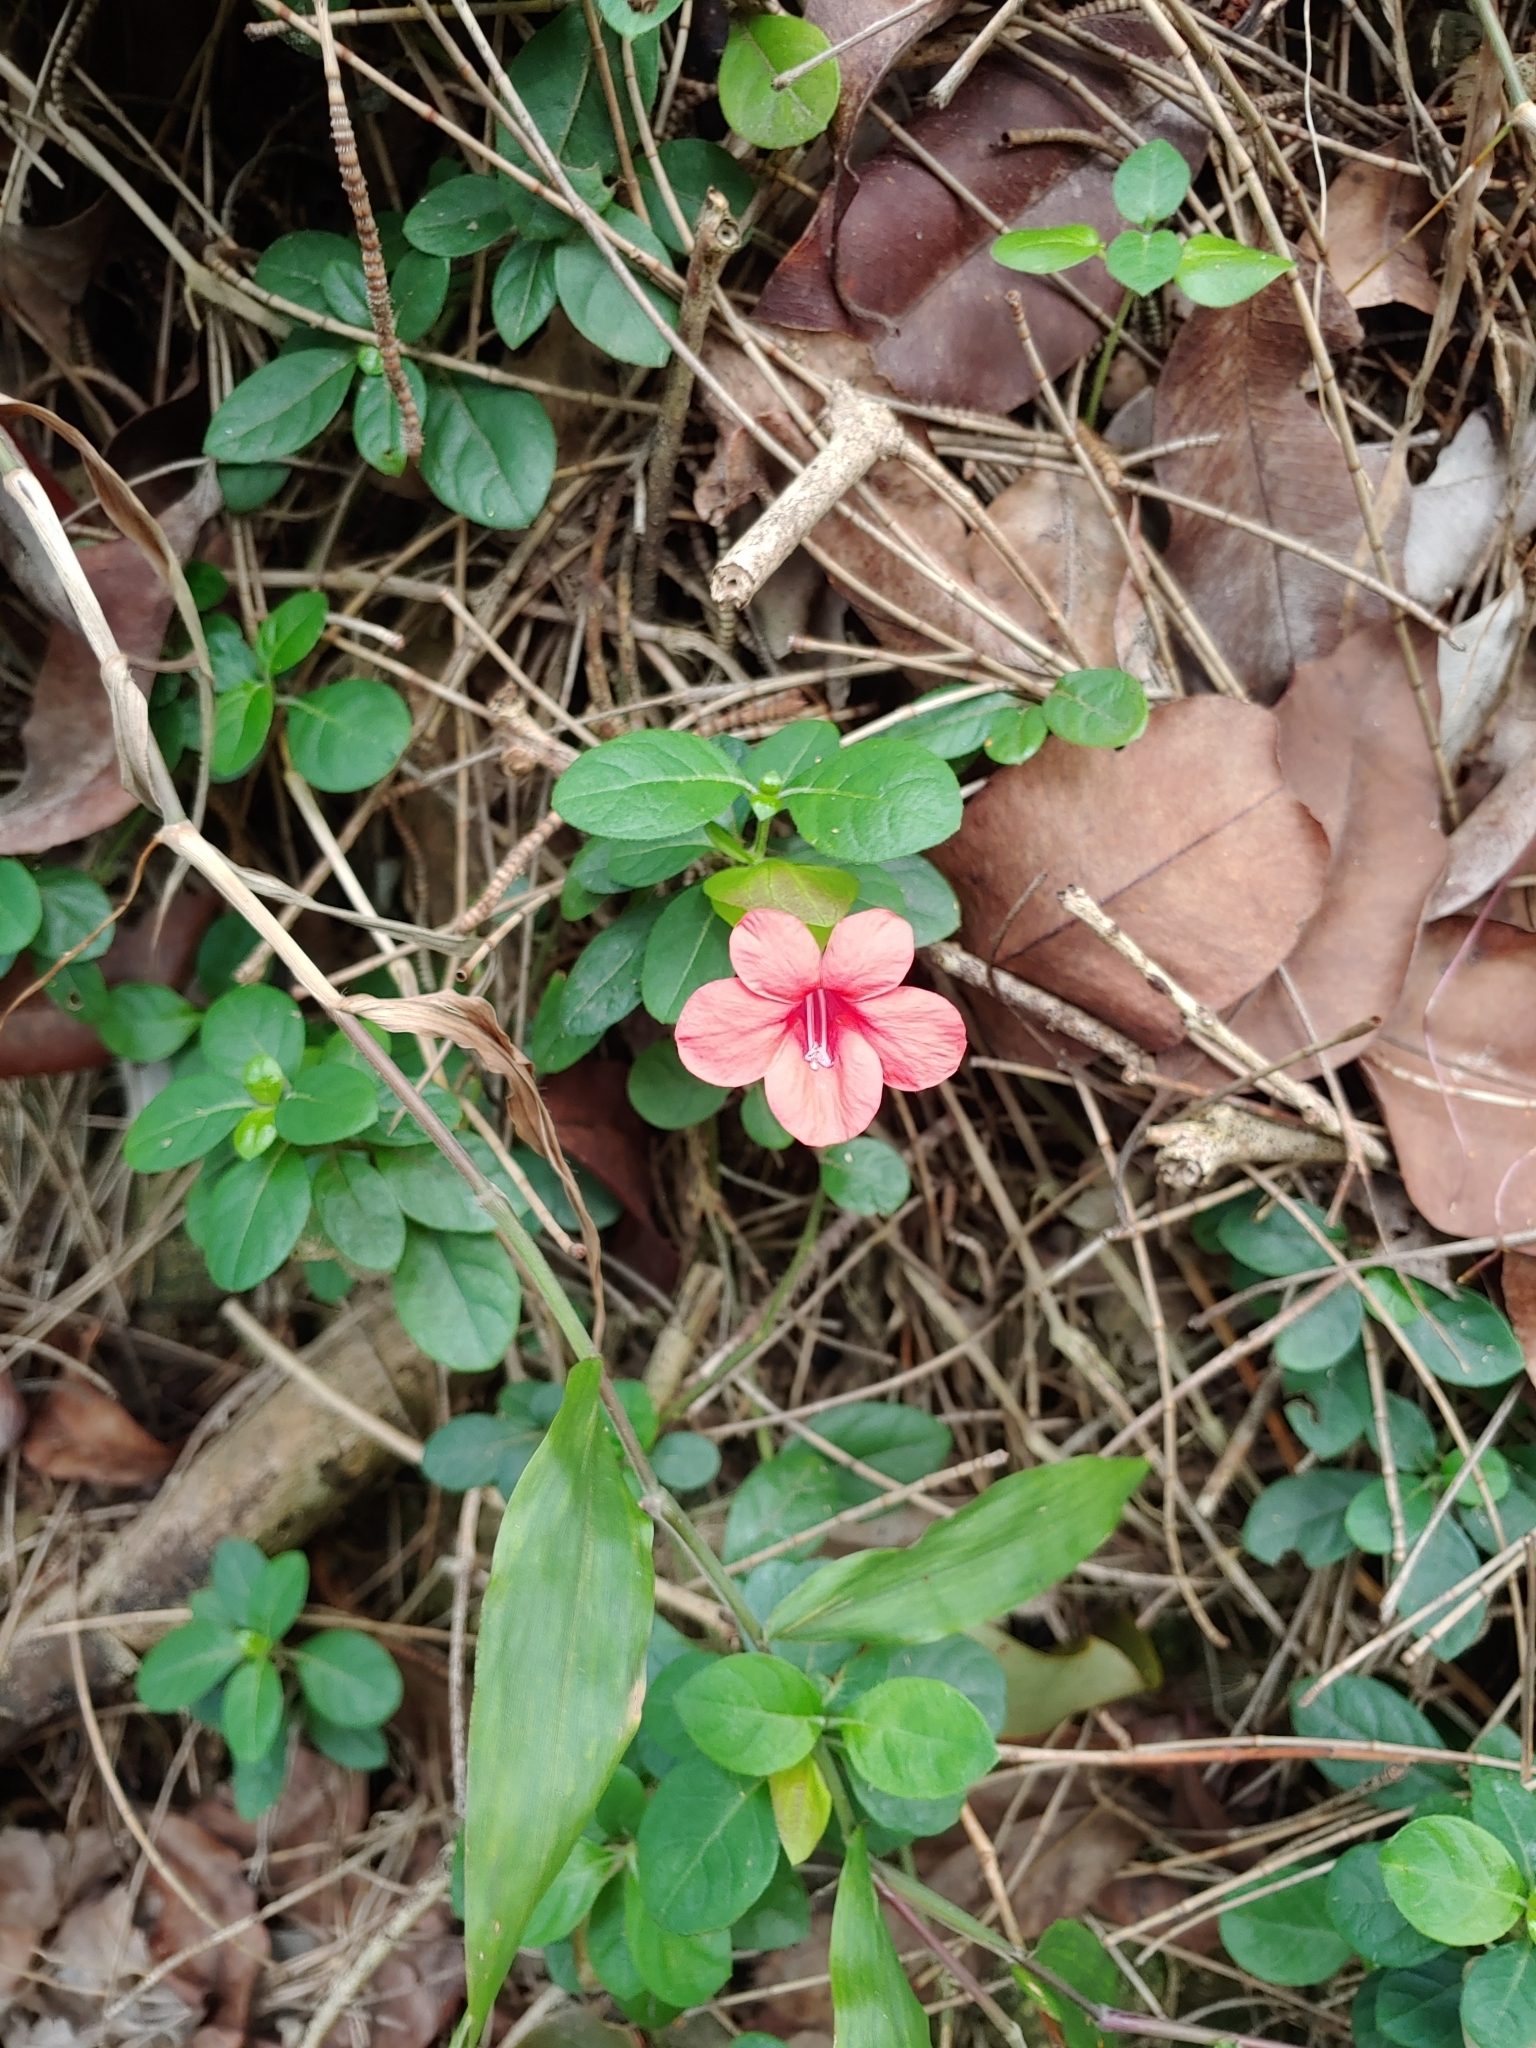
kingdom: Plantae
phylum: Tracheophyta
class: Magnoliopsida
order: Lamiales
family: Acanthaceae
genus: Barleria
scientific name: Barleria repens
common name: Pink-ruellia
